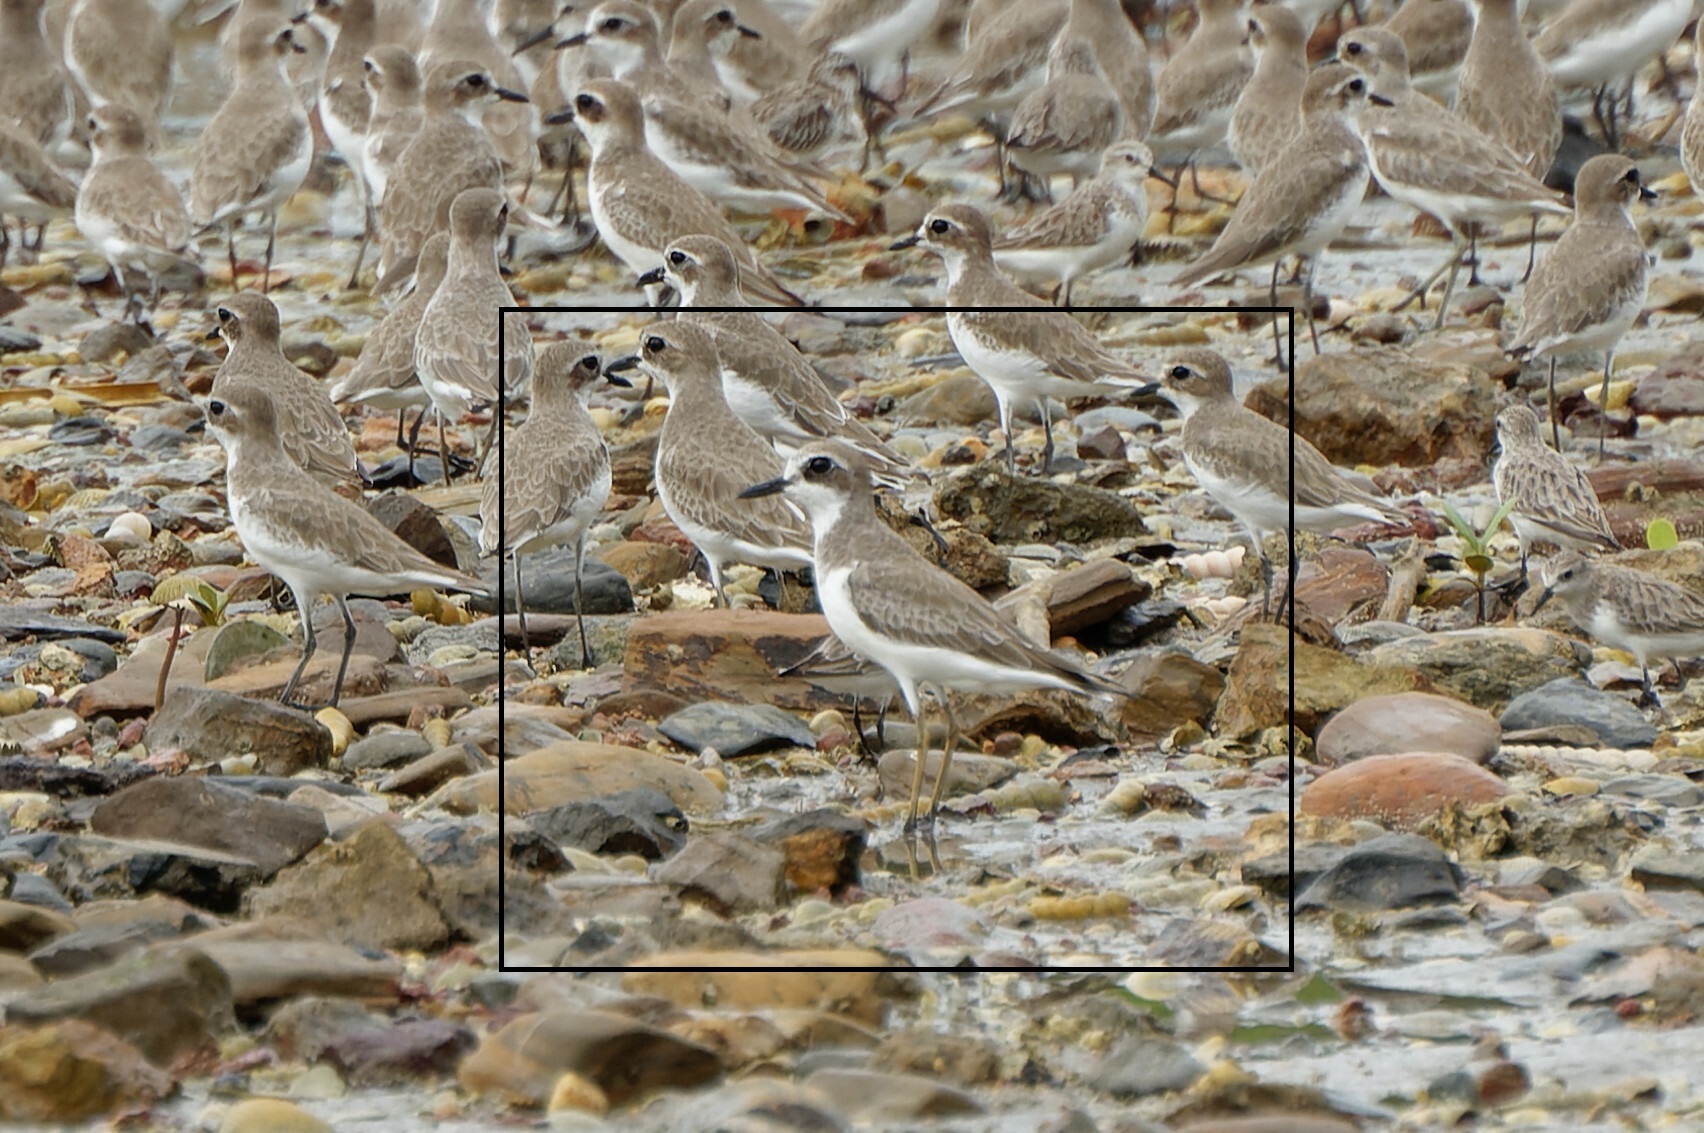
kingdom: Animalia
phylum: Chordata
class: Aves
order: Charadriiformes
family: Charadriidae
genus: Charadrius
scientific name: Charadrius leschenaultii
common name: Greater sand plover
